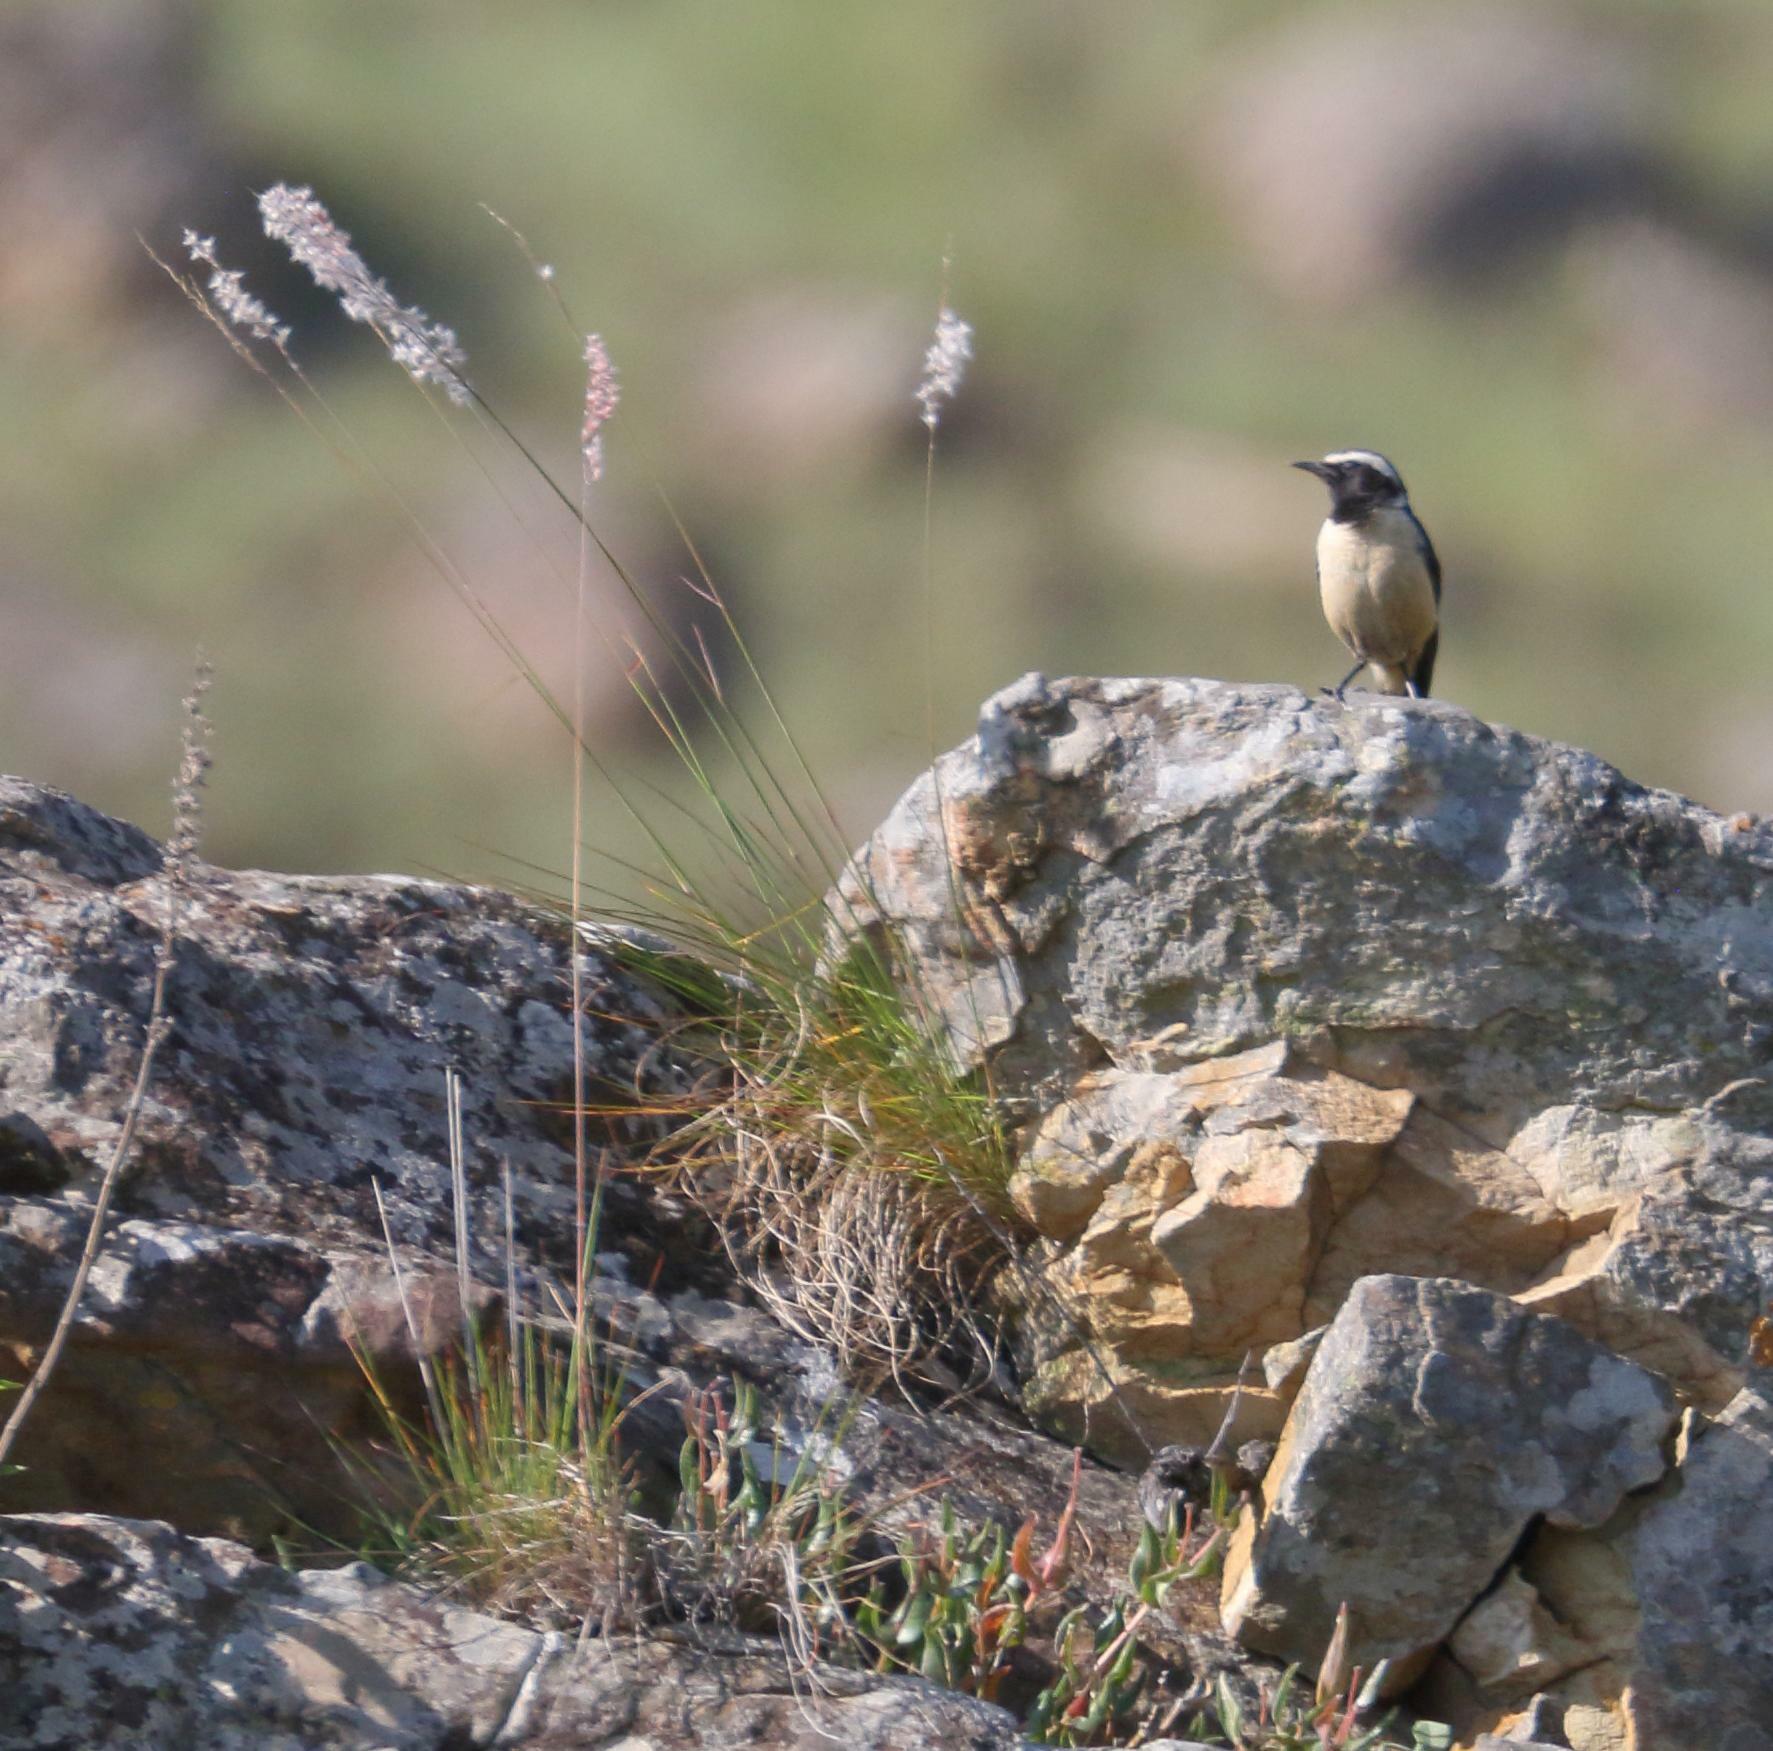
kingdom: Animalia
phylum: Chordata
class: Aves
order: Passeriformes
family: Muscicapidae
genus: Campicoloides
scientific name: Campicoloides bifasciatus
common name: Buff-streaked chat
